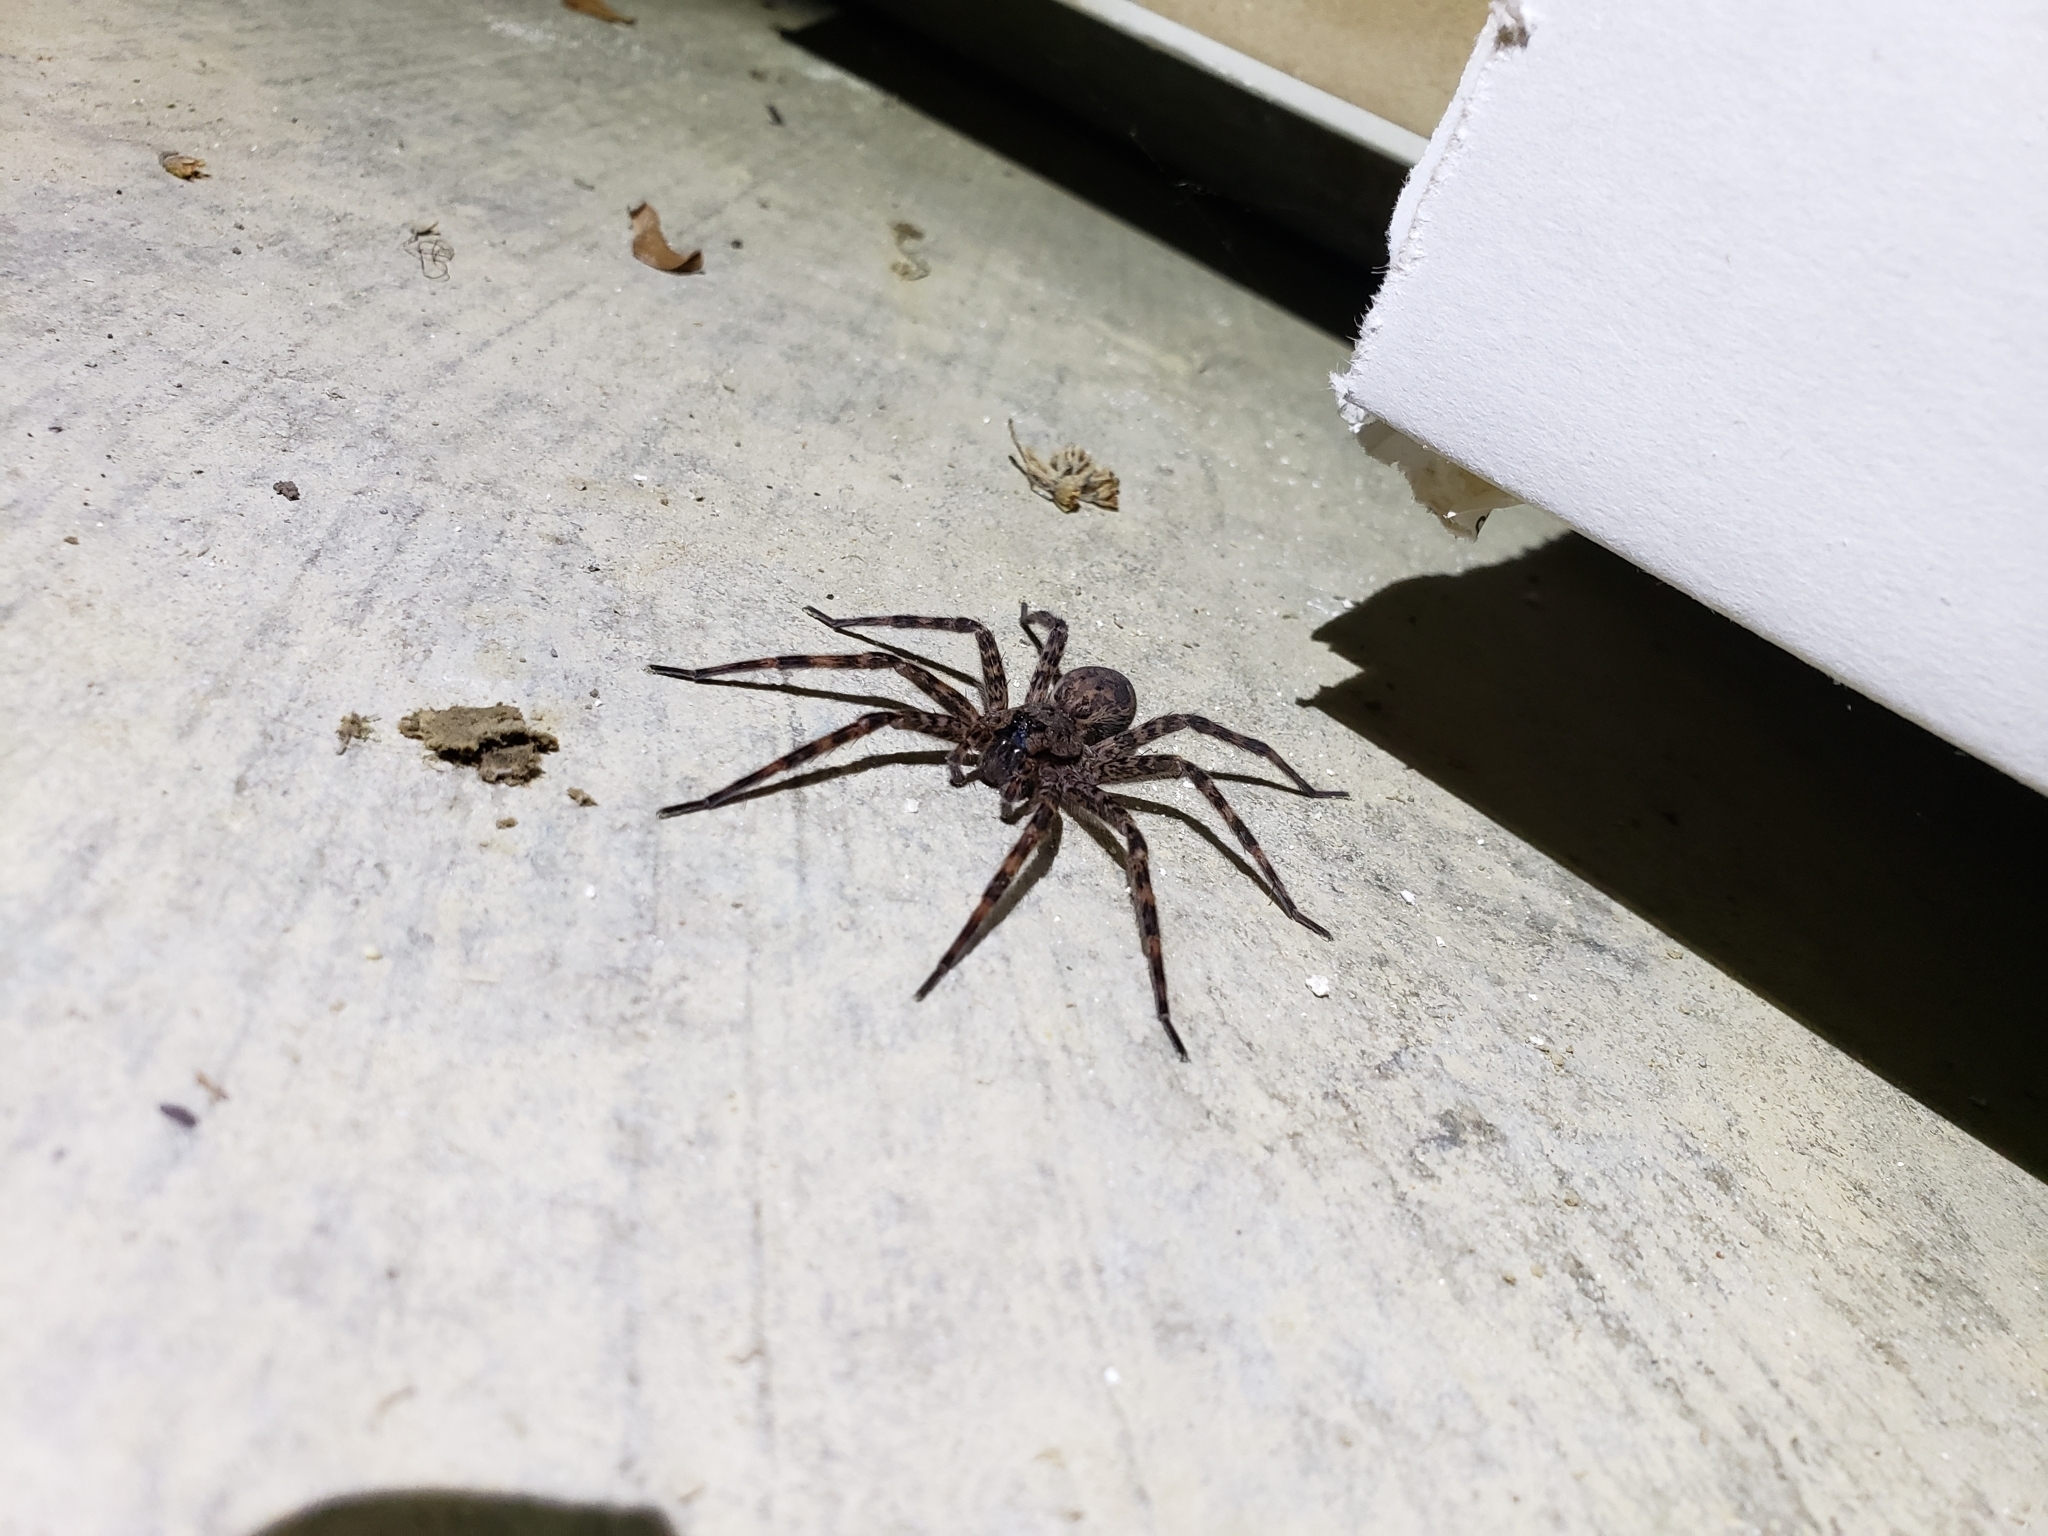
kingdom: Animalia
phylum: Arthropoda
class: Arachnida
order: Araneae
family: Pisauridae
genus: Dolomedes
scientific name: Dolomedes tenebrosus
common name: Dark fishing spider
